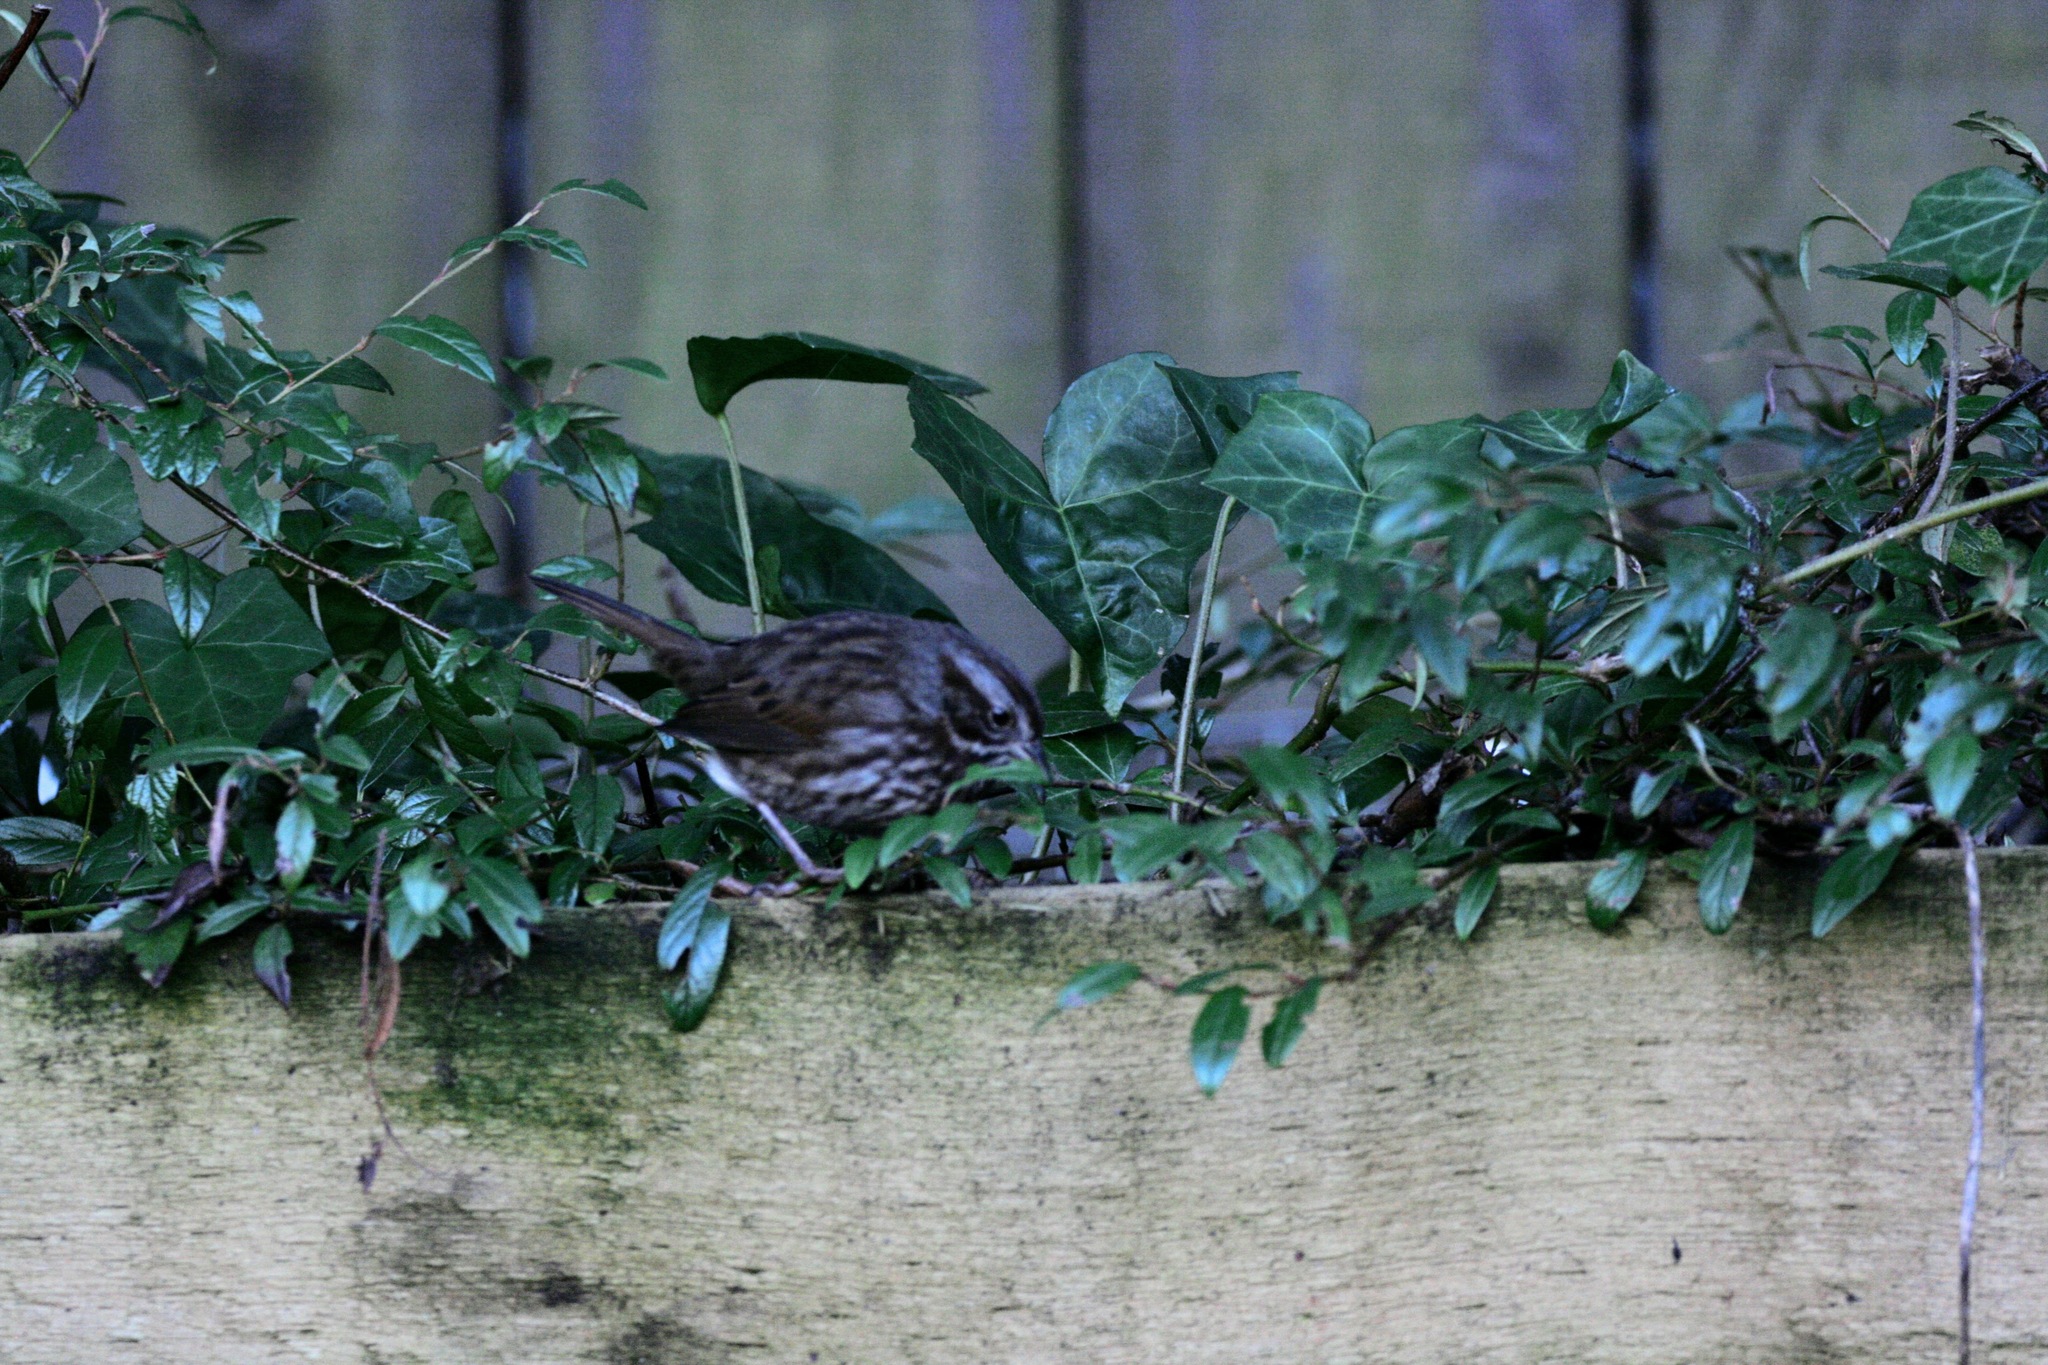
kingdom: Animalia
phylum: Chordata
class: Aves
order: Passeriformes
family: Passerellidae
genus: Melospiza
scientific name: Melospiza melodia
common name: Song sparrow
